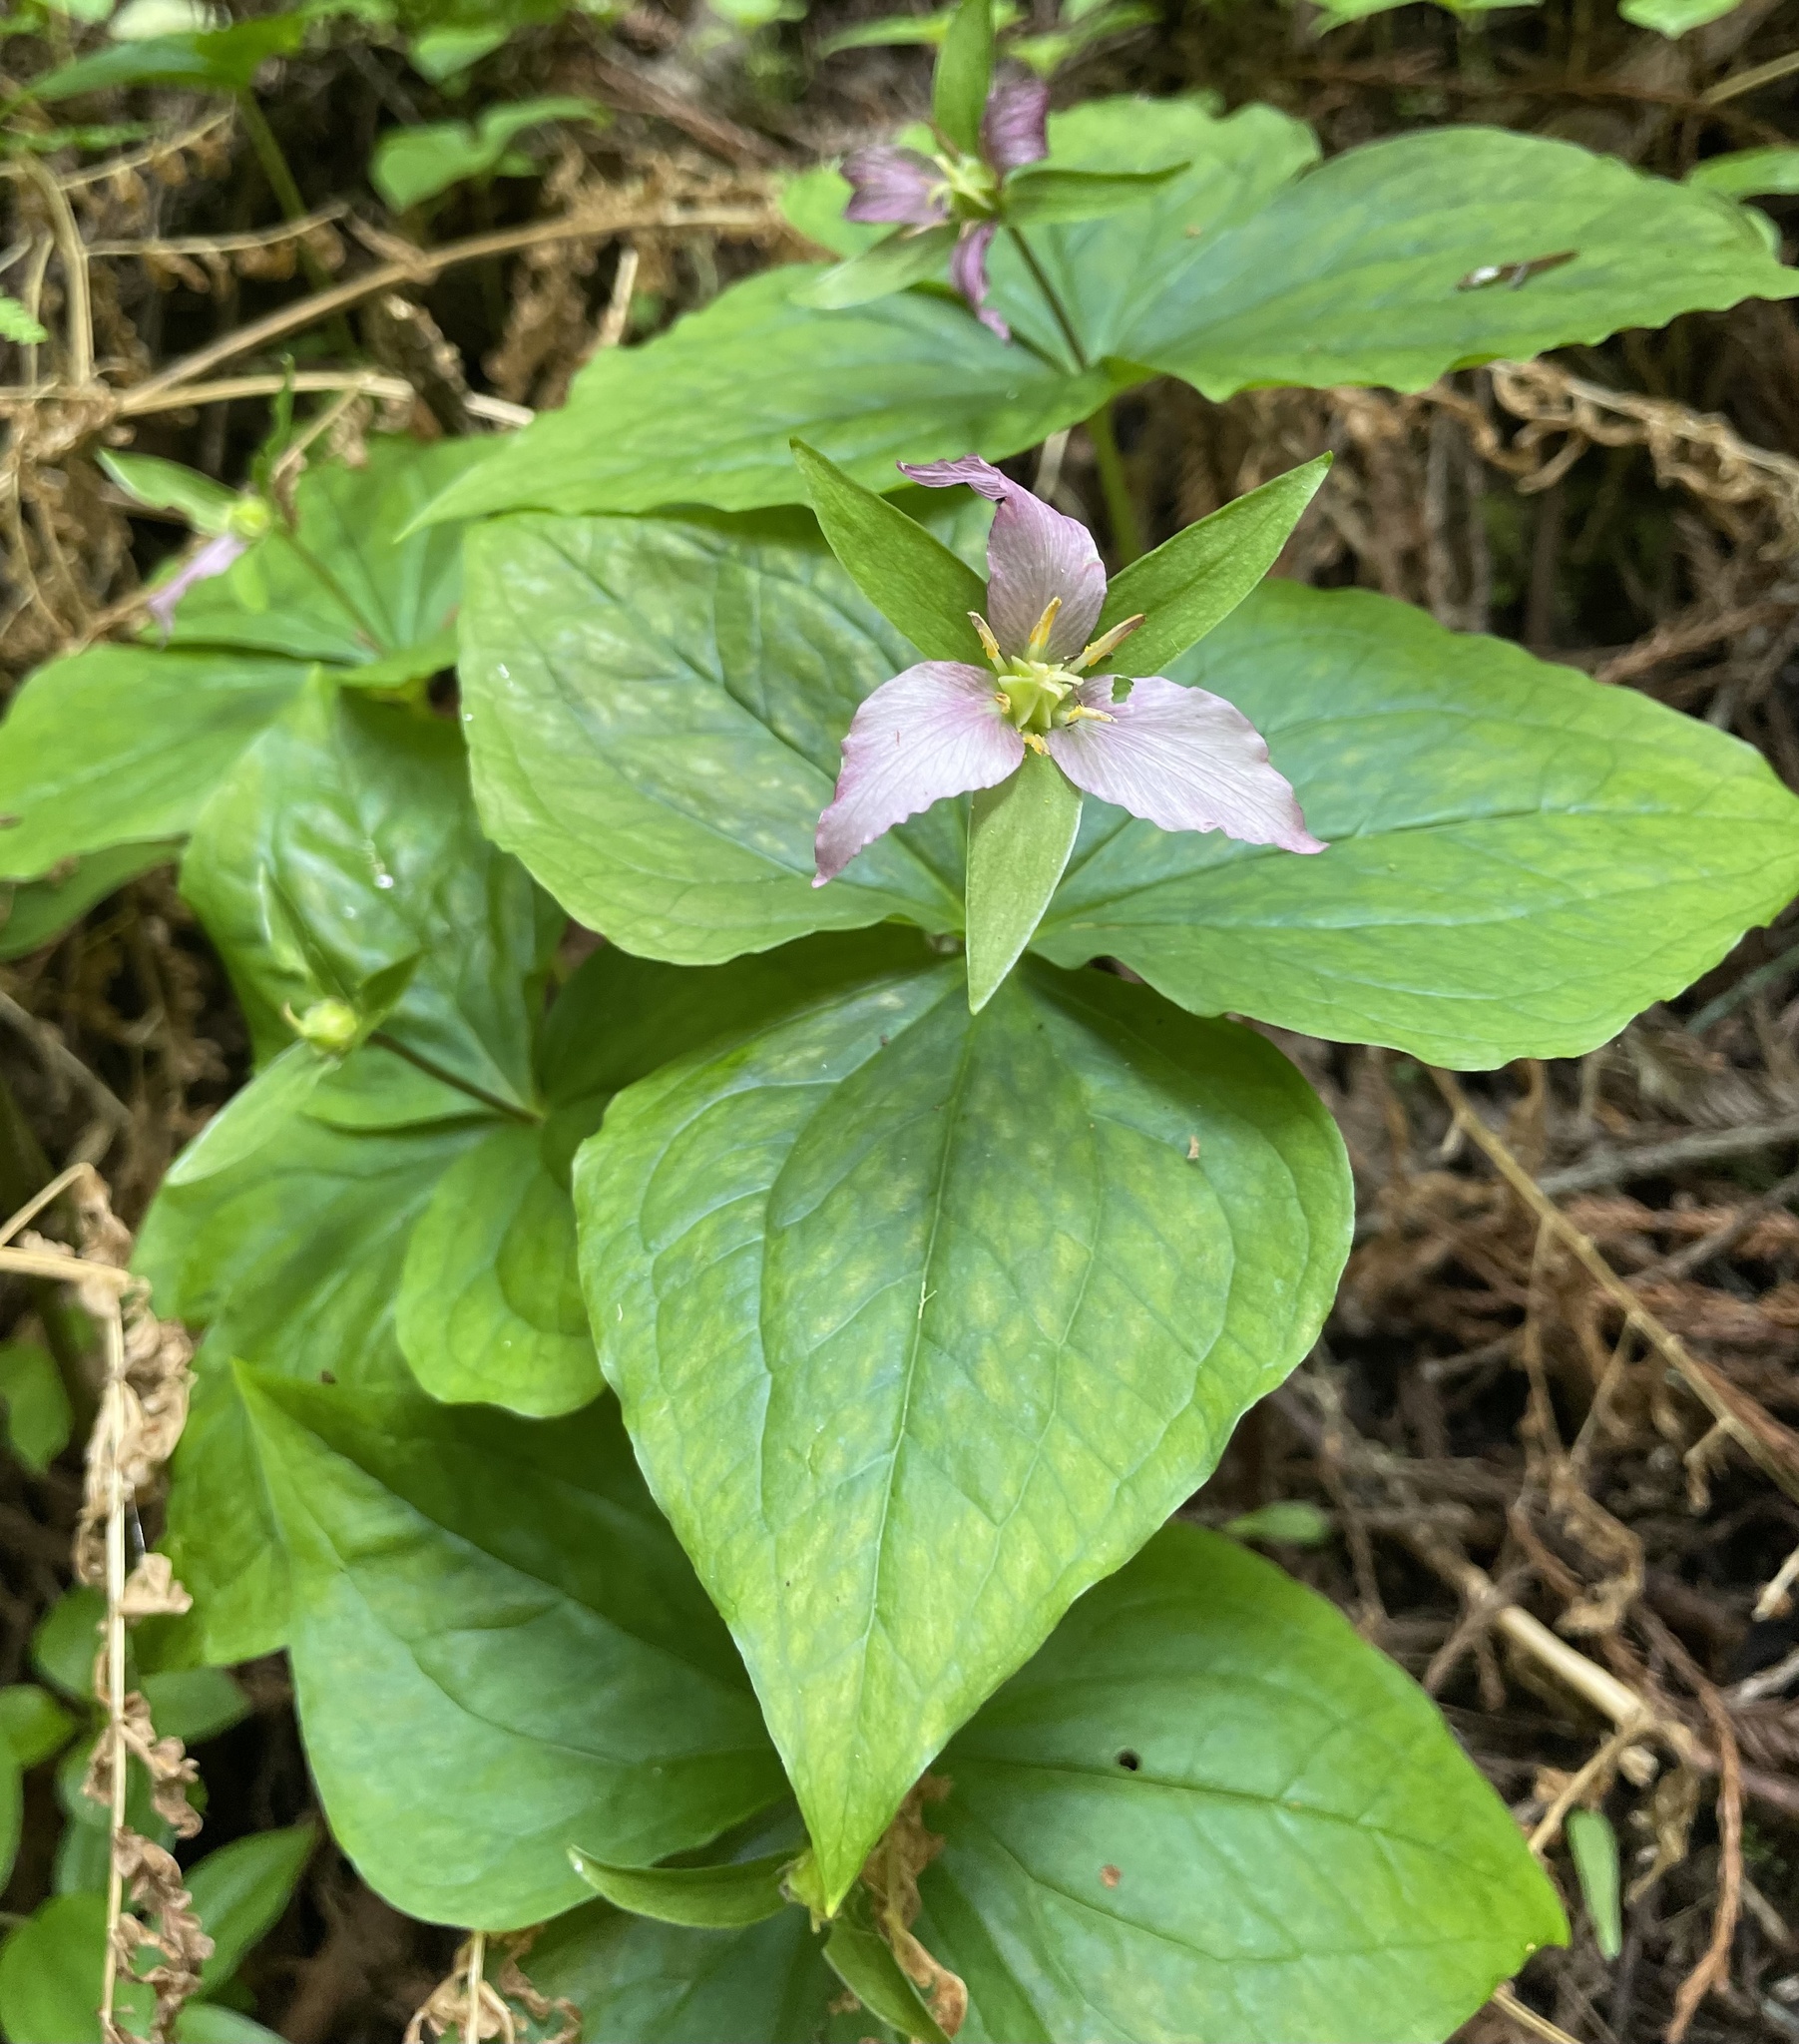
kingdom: Plantae
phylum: Tracheophyta
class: Liliopsida
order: Liliales
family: Melanthiaceae
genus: Trillium
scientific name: Trillium ovatum
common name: Pacific trillium
